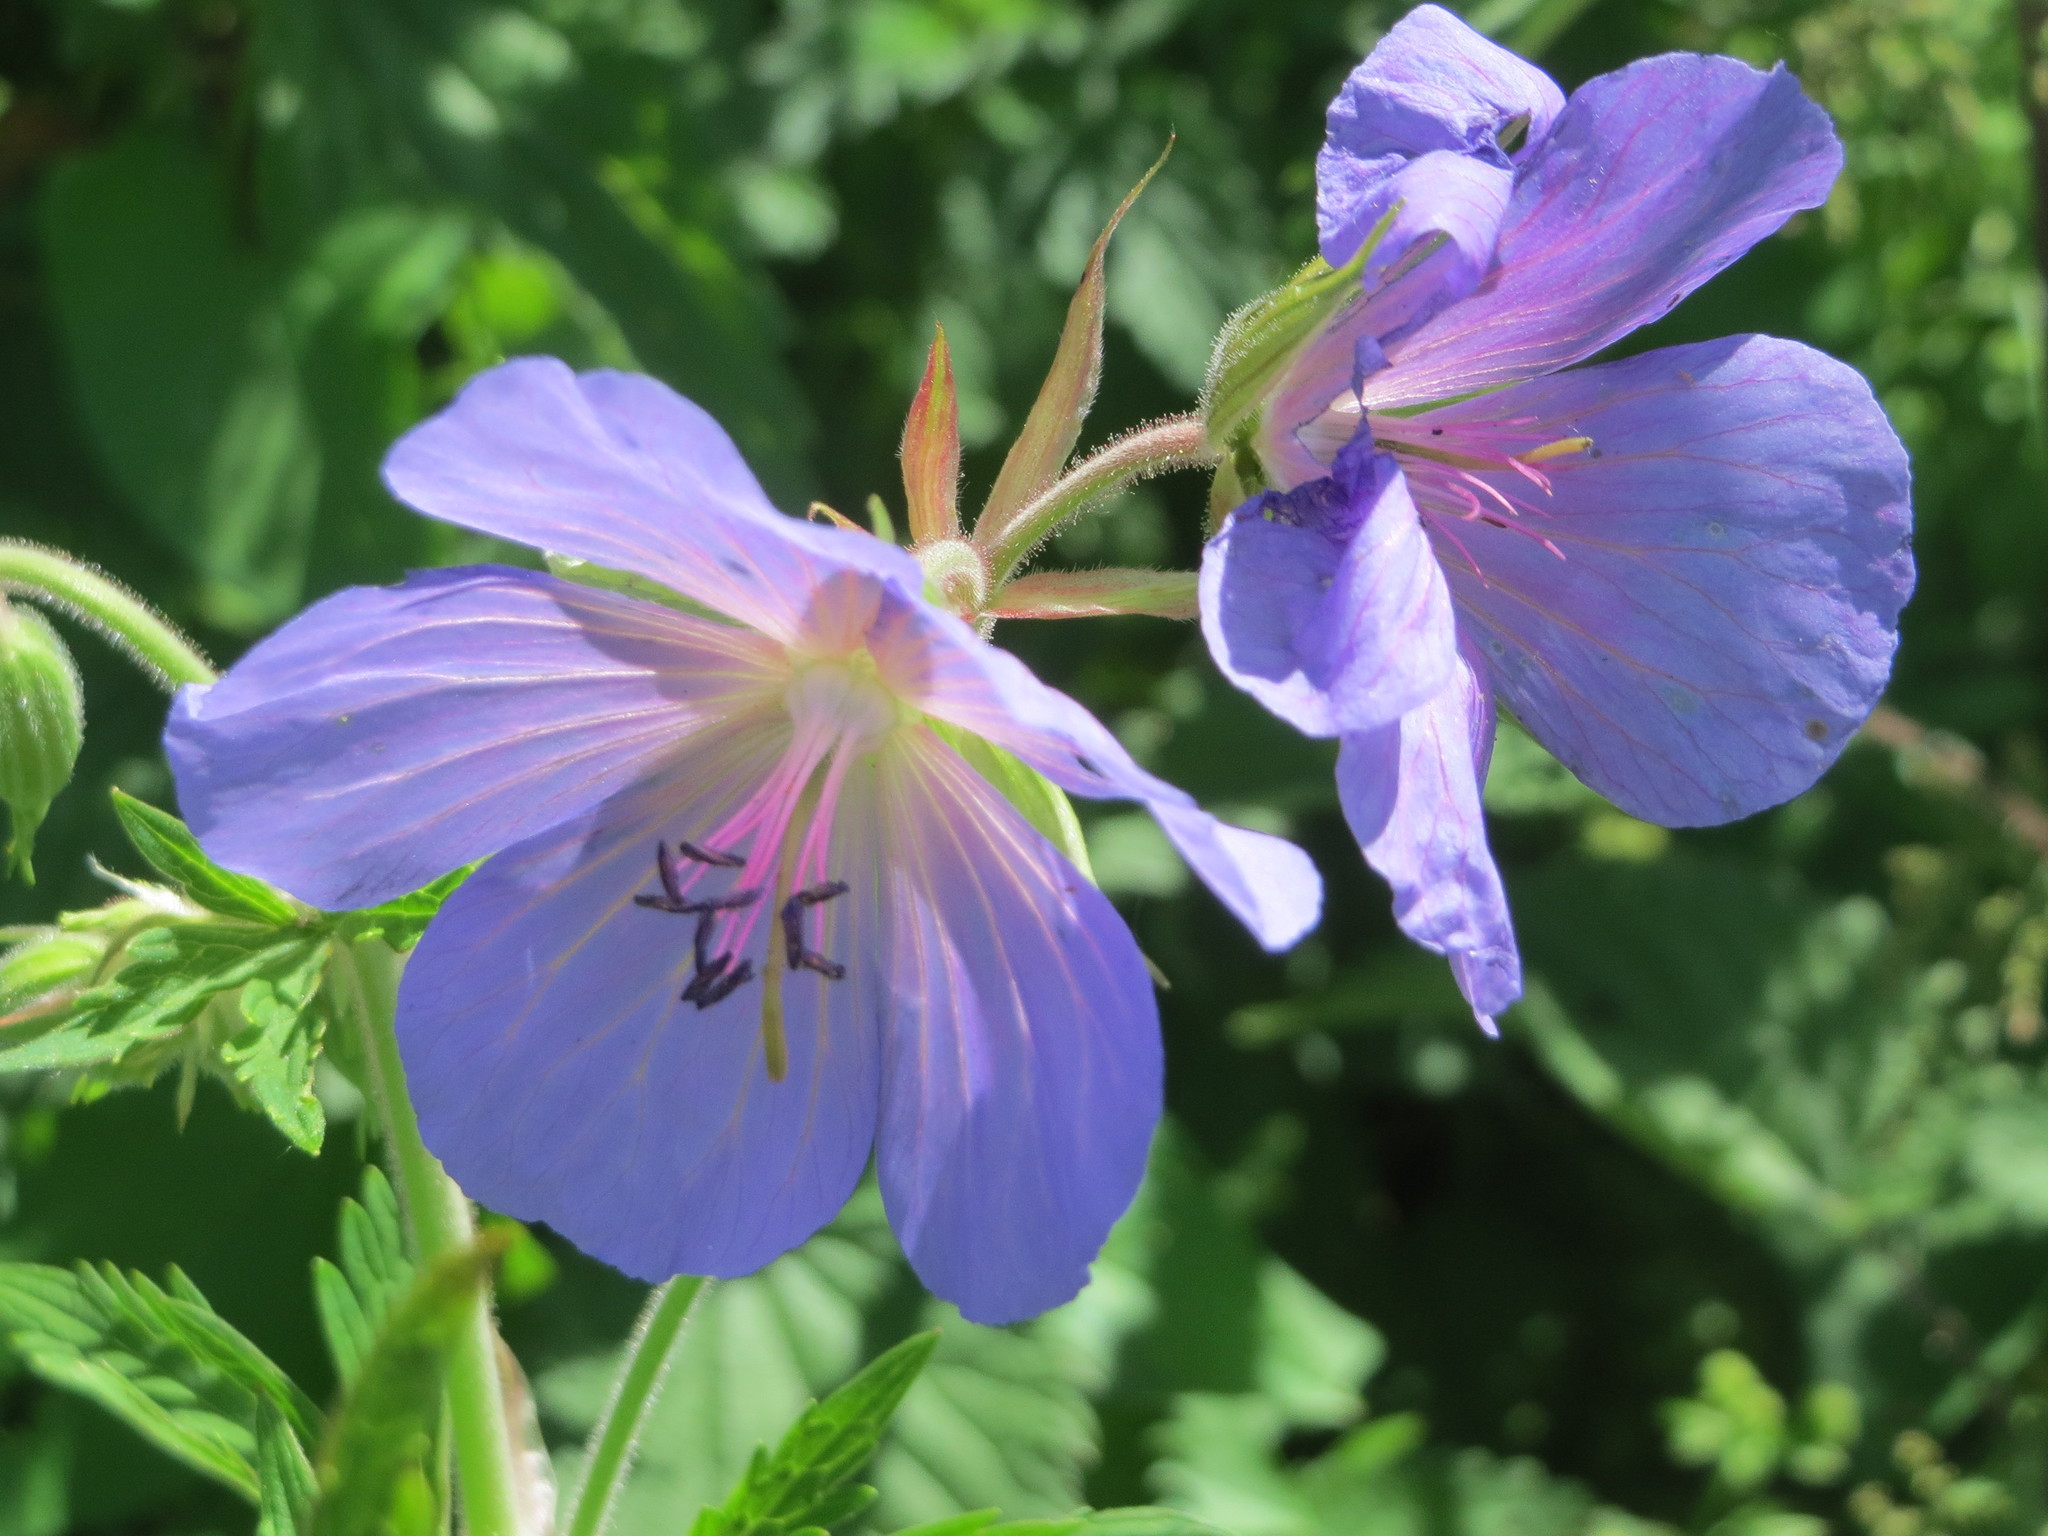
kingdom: Plantae
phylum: Tracheophyta
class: Magnoliopsida
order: Geraniales
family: Geraniaceae
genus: Geranium
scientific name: Geranium pratense
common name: Meadow crane's-bill
